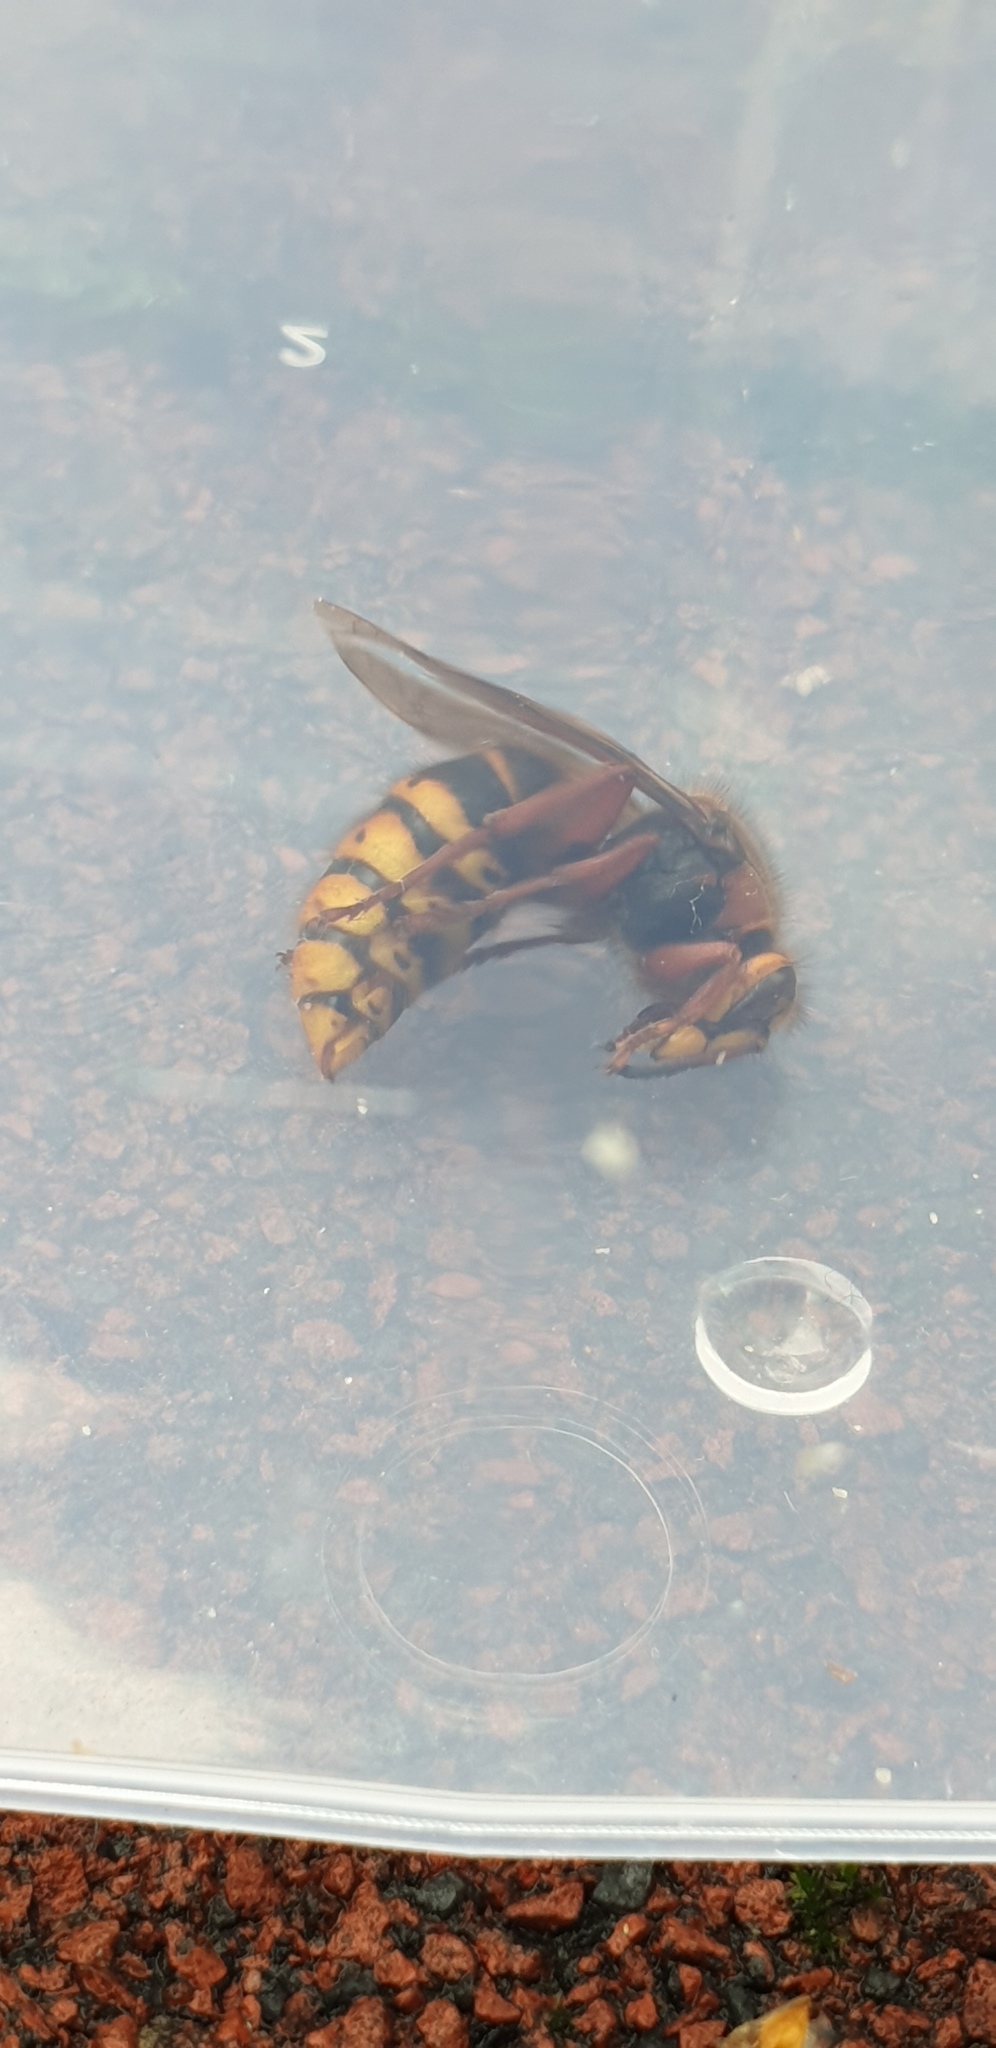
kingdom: Animalia
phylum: Arthropoda
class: Insecta
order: Hymenoptera
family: Vespidae
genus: Vespa
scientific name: Vespa crabro
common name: Hornet
